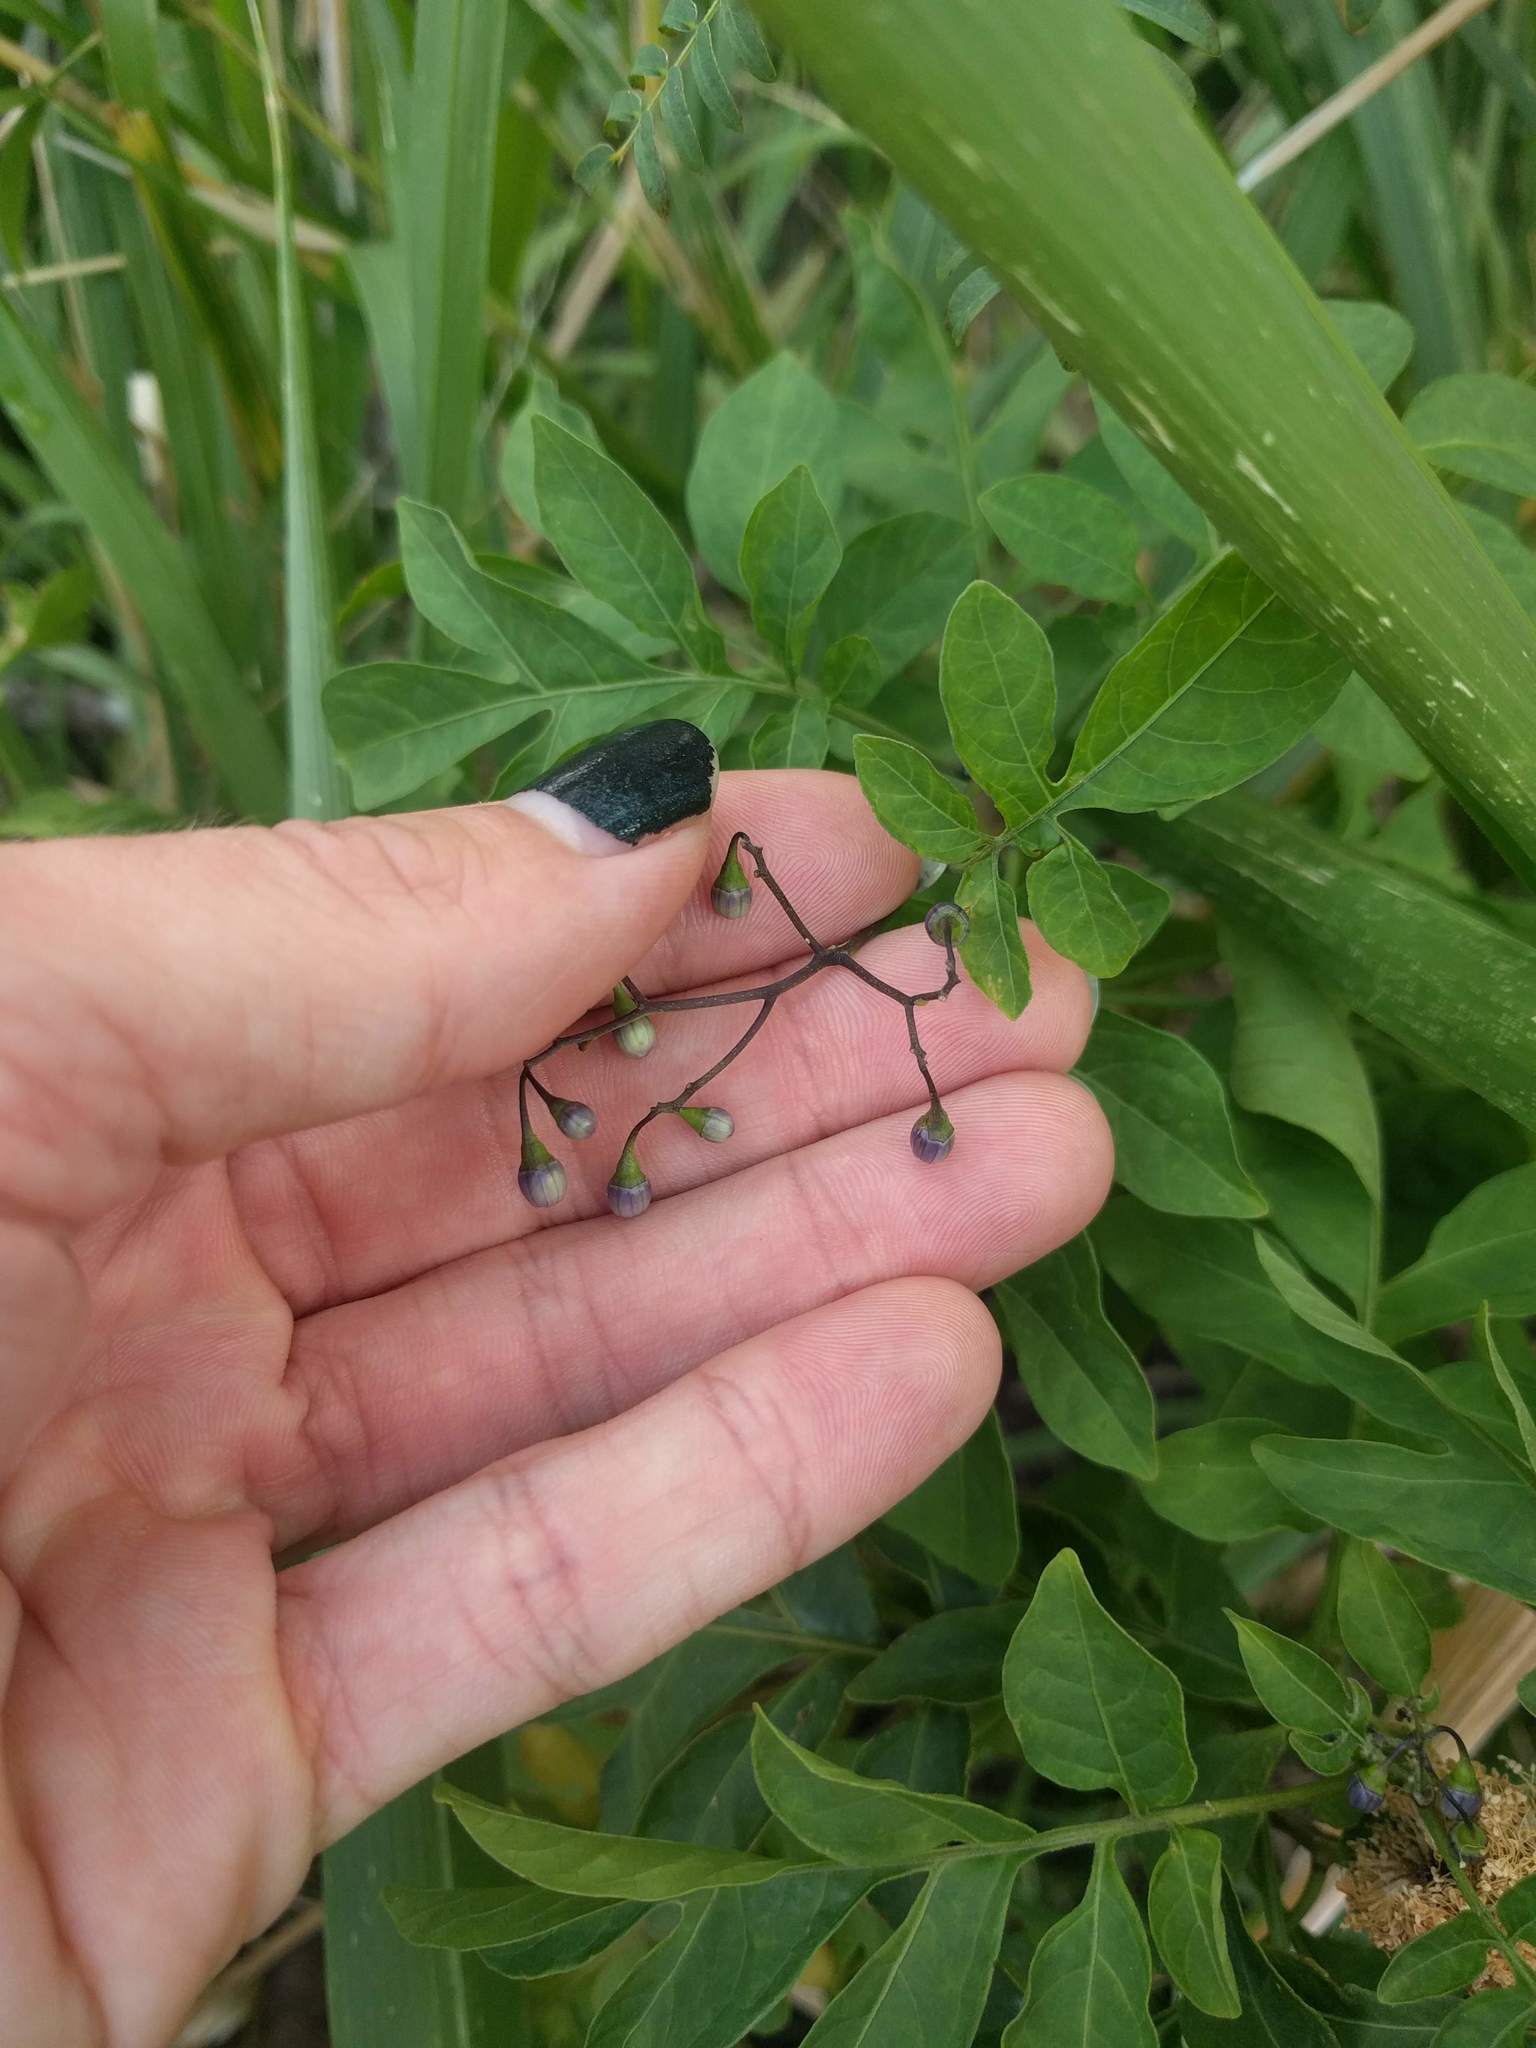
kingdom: Plantae
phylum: Tracheophyta
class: Magnoliopsida
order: Solanales
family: Solanaceae
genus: Solanum
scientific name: Solanum seaforthianum
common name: Brazilian nightshade
